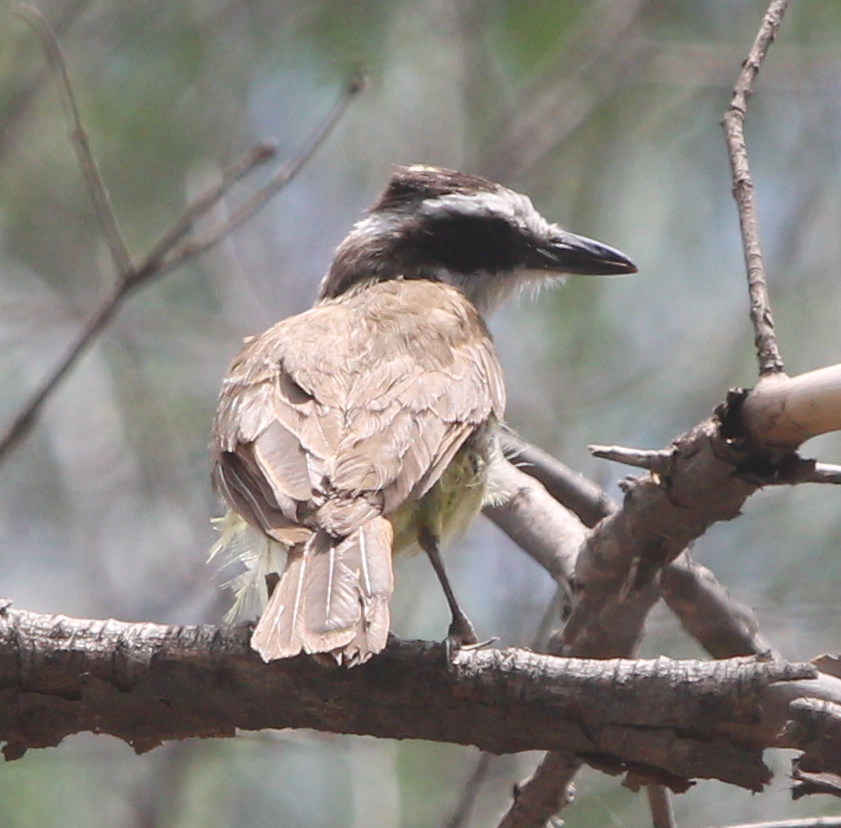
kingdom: Animalia
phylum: Chordata
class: Aves
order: Passeriformes
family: Tyrannidae
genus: Pitangus
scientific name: Pitangus sulphuratus
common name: Great kiskadee
